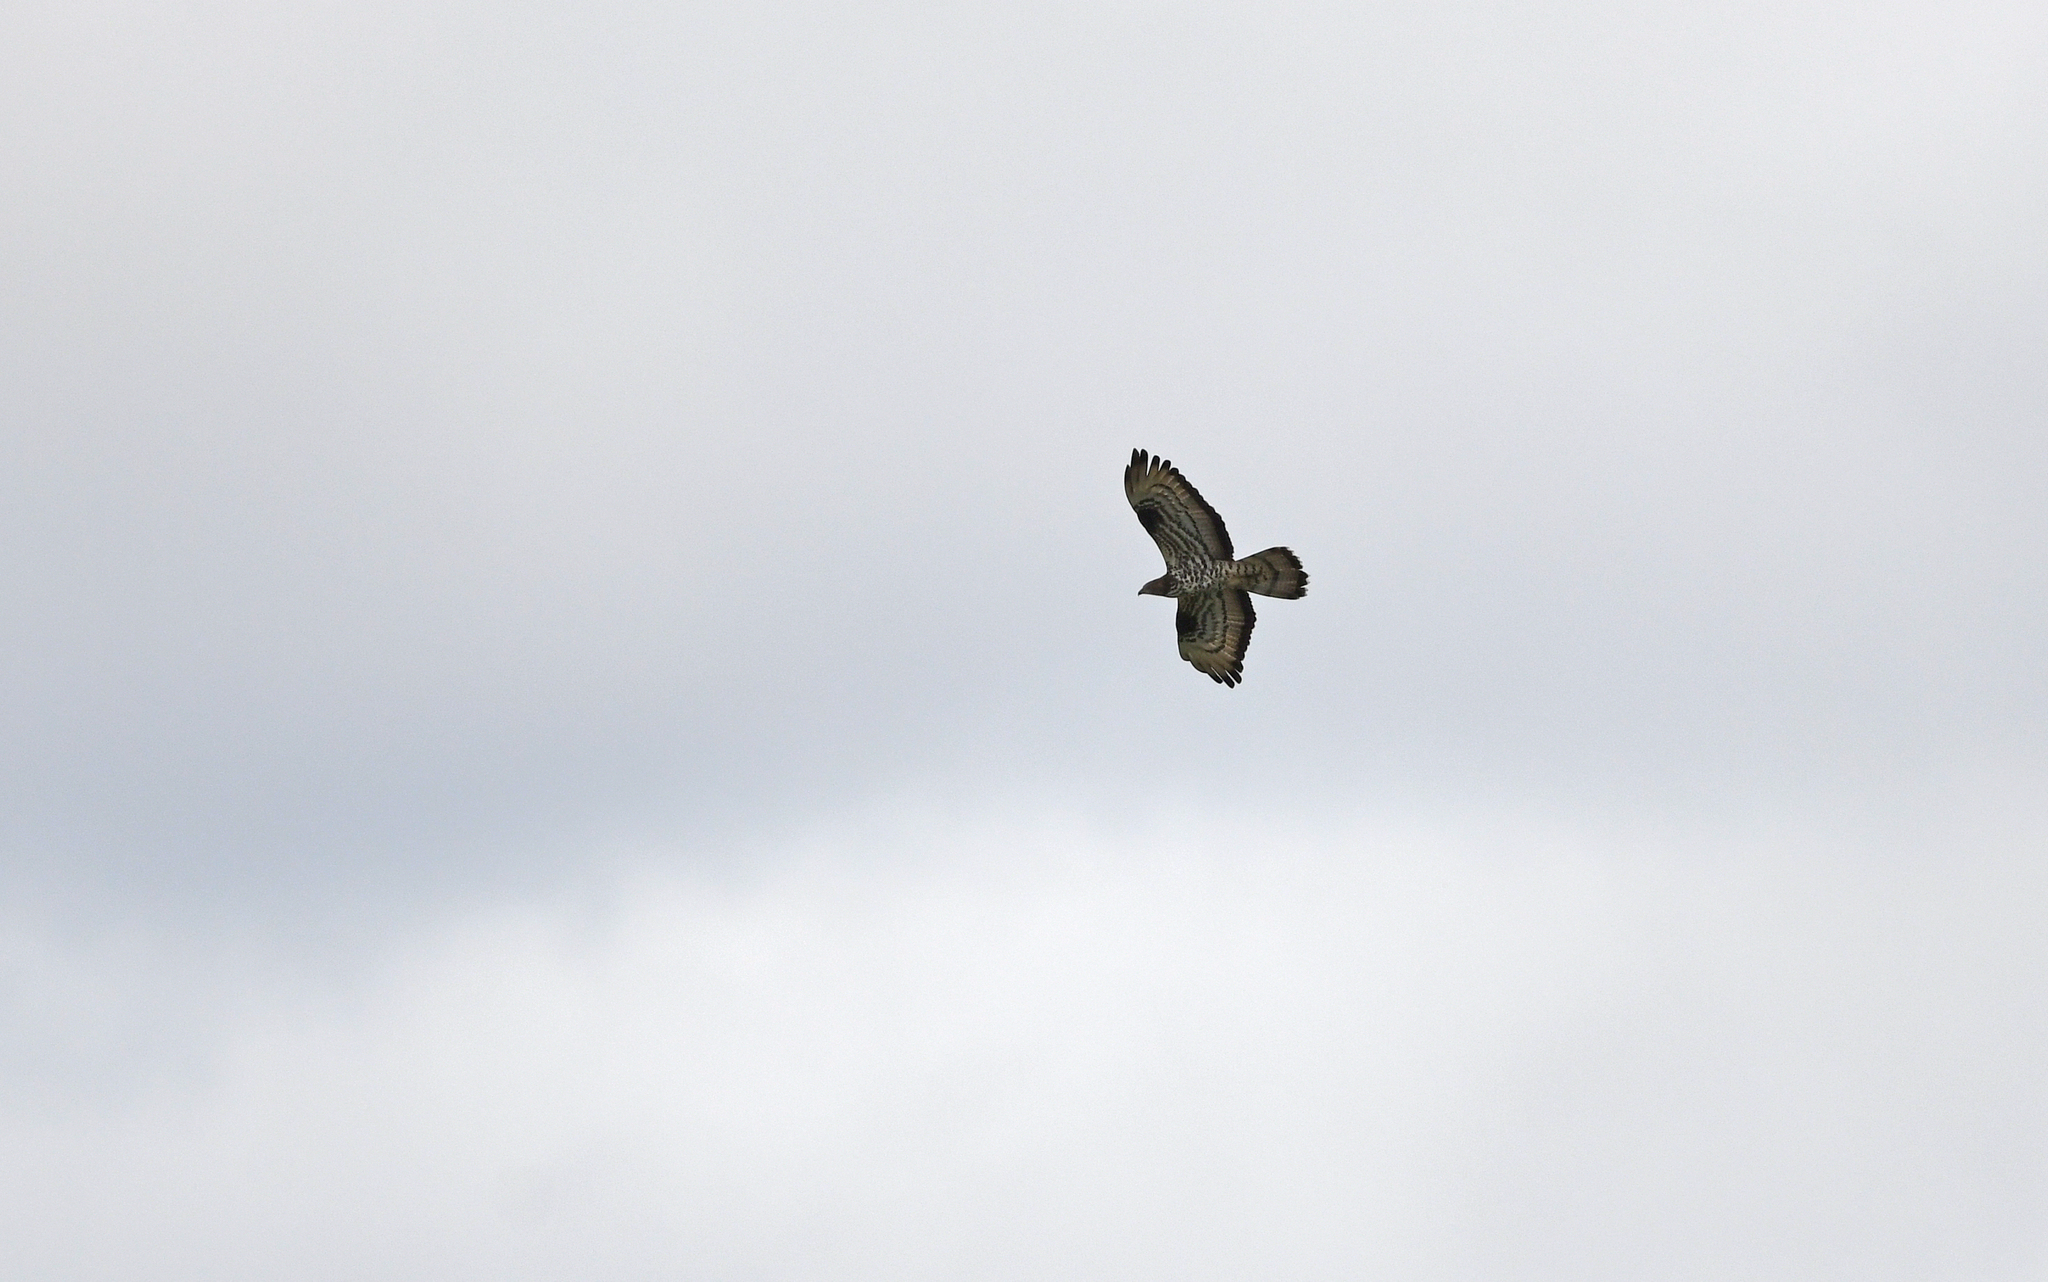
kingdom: Animalia
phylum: Chordata
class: Aves
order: Accipitriformes
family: Accipitridae
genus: Pernis
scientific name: Pernis apivorus
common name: European honey buzzard
